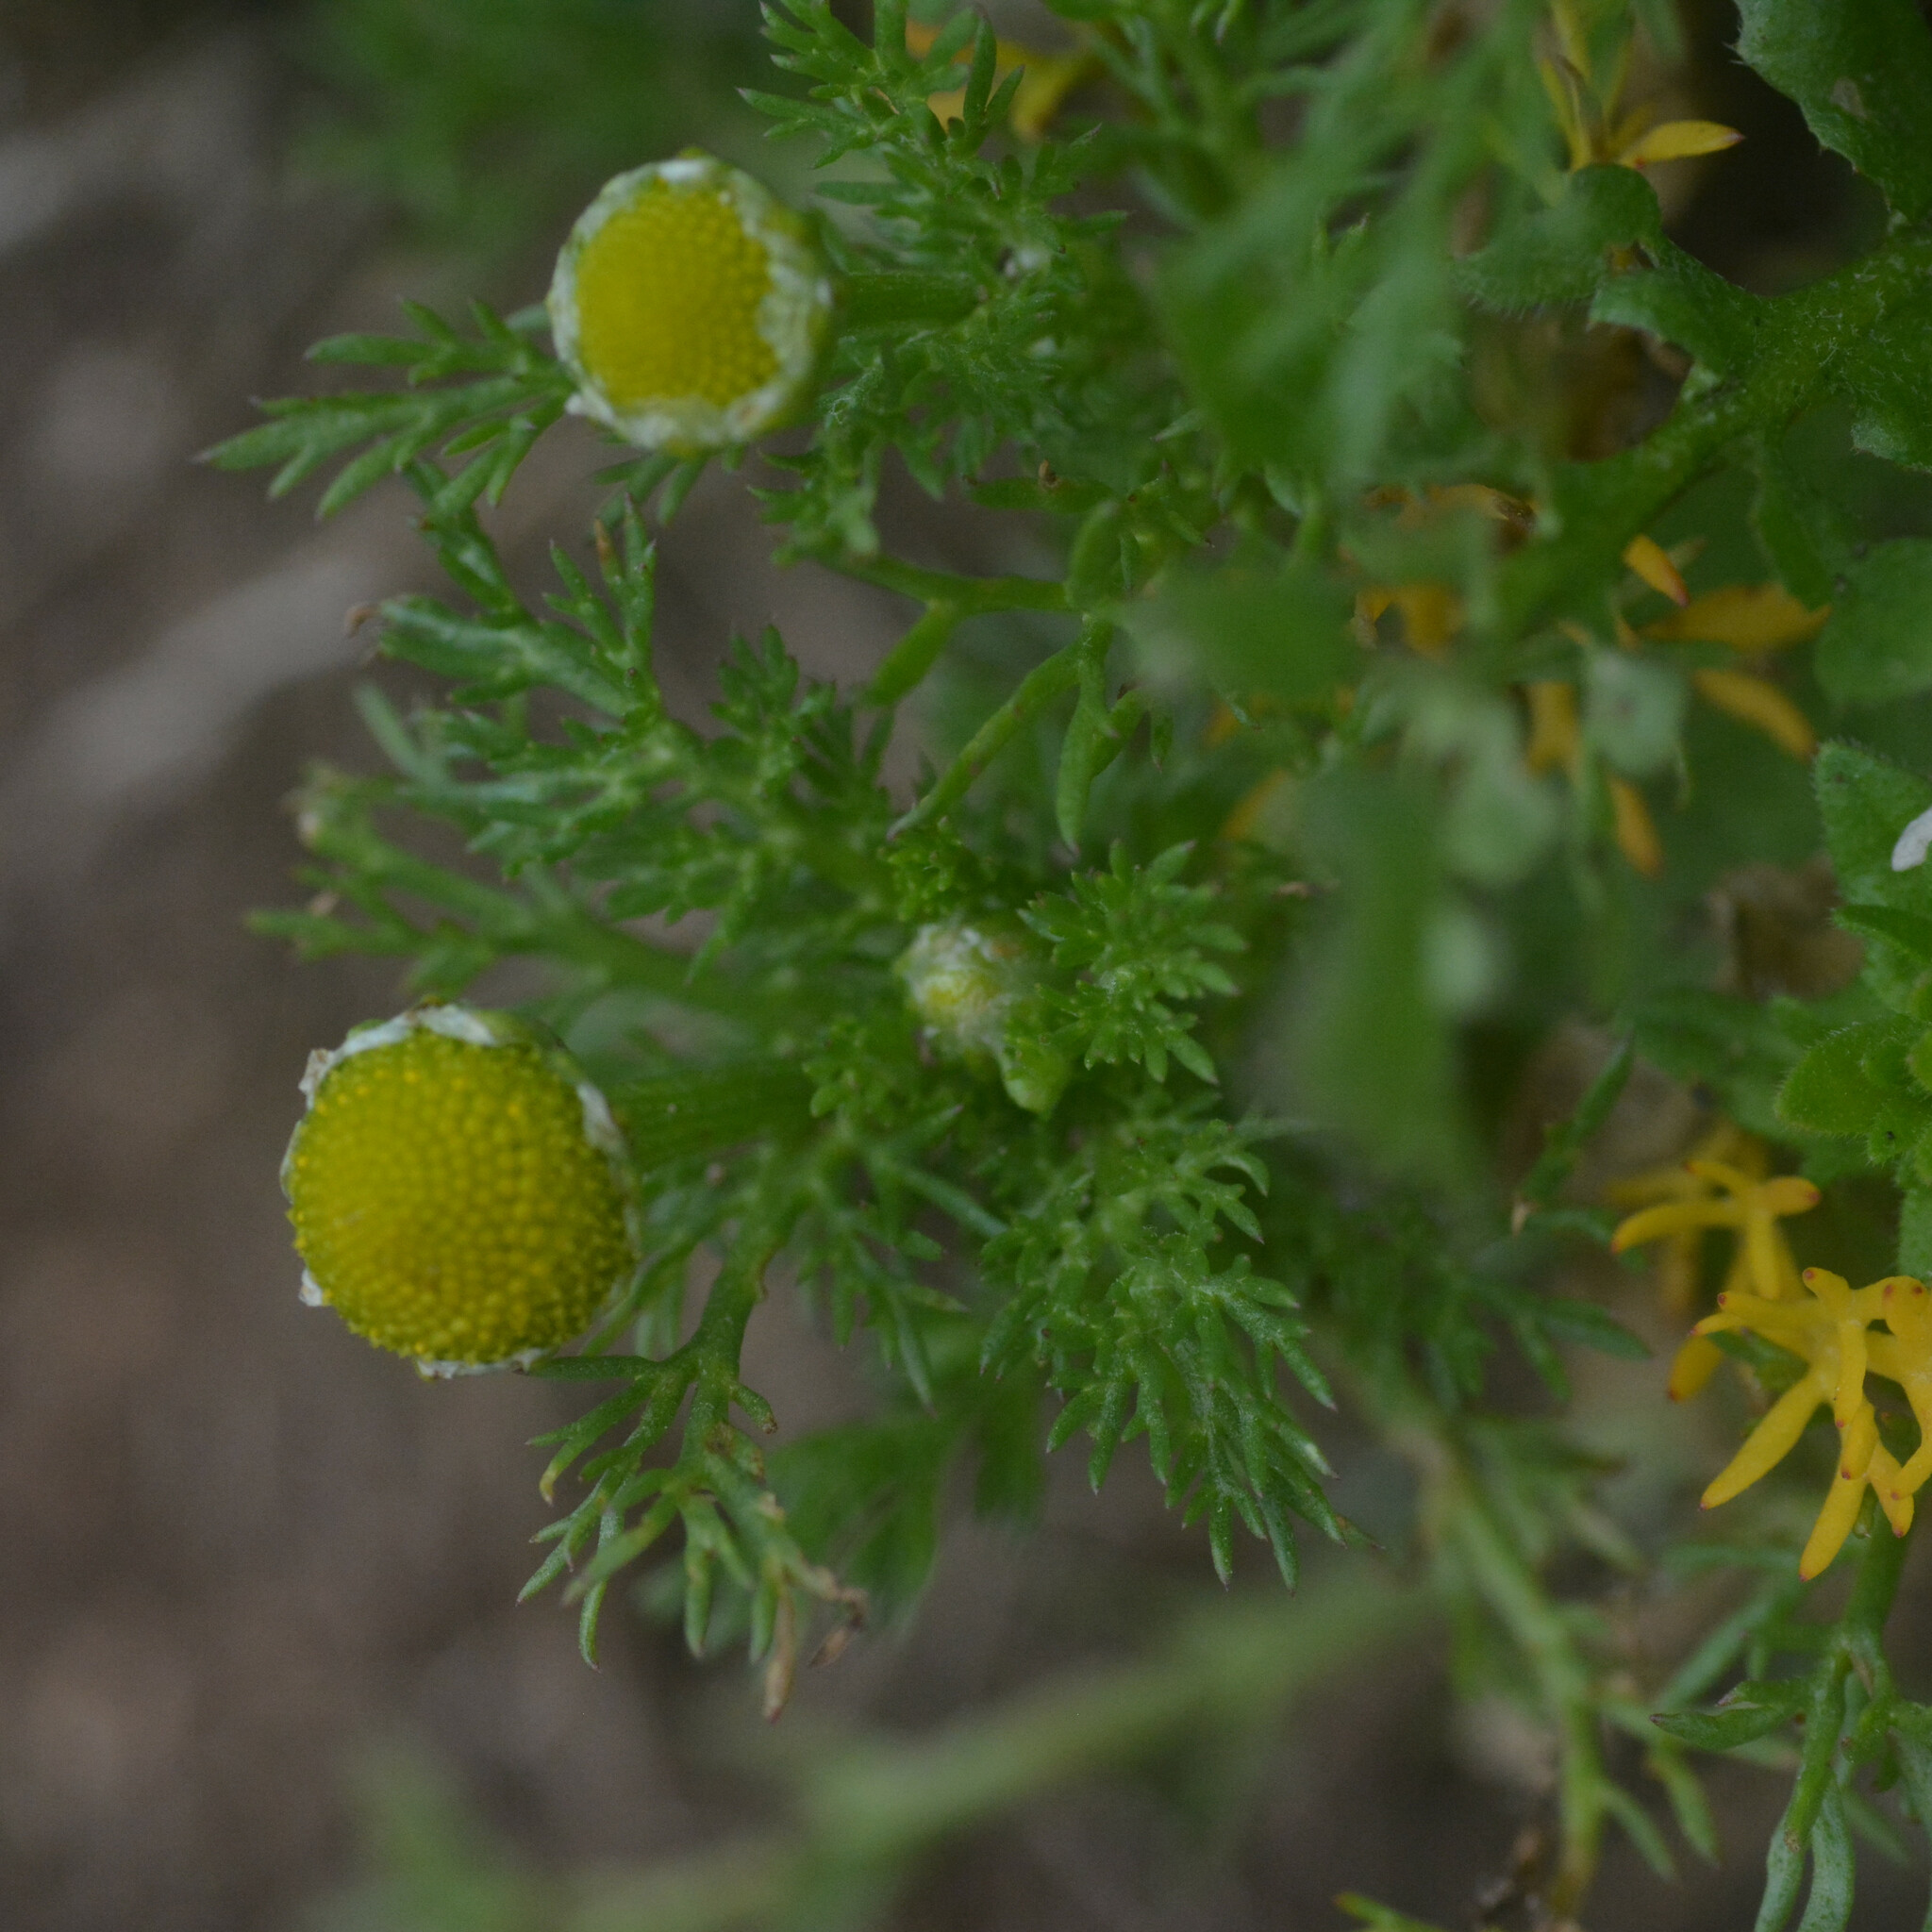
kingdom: Plantae
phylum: Tracheophyta
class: Magnoliopsida
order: Asterales
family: Asteraceae
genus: Matricaria
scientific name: Matricaria discoidea
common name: Disc mayweed
